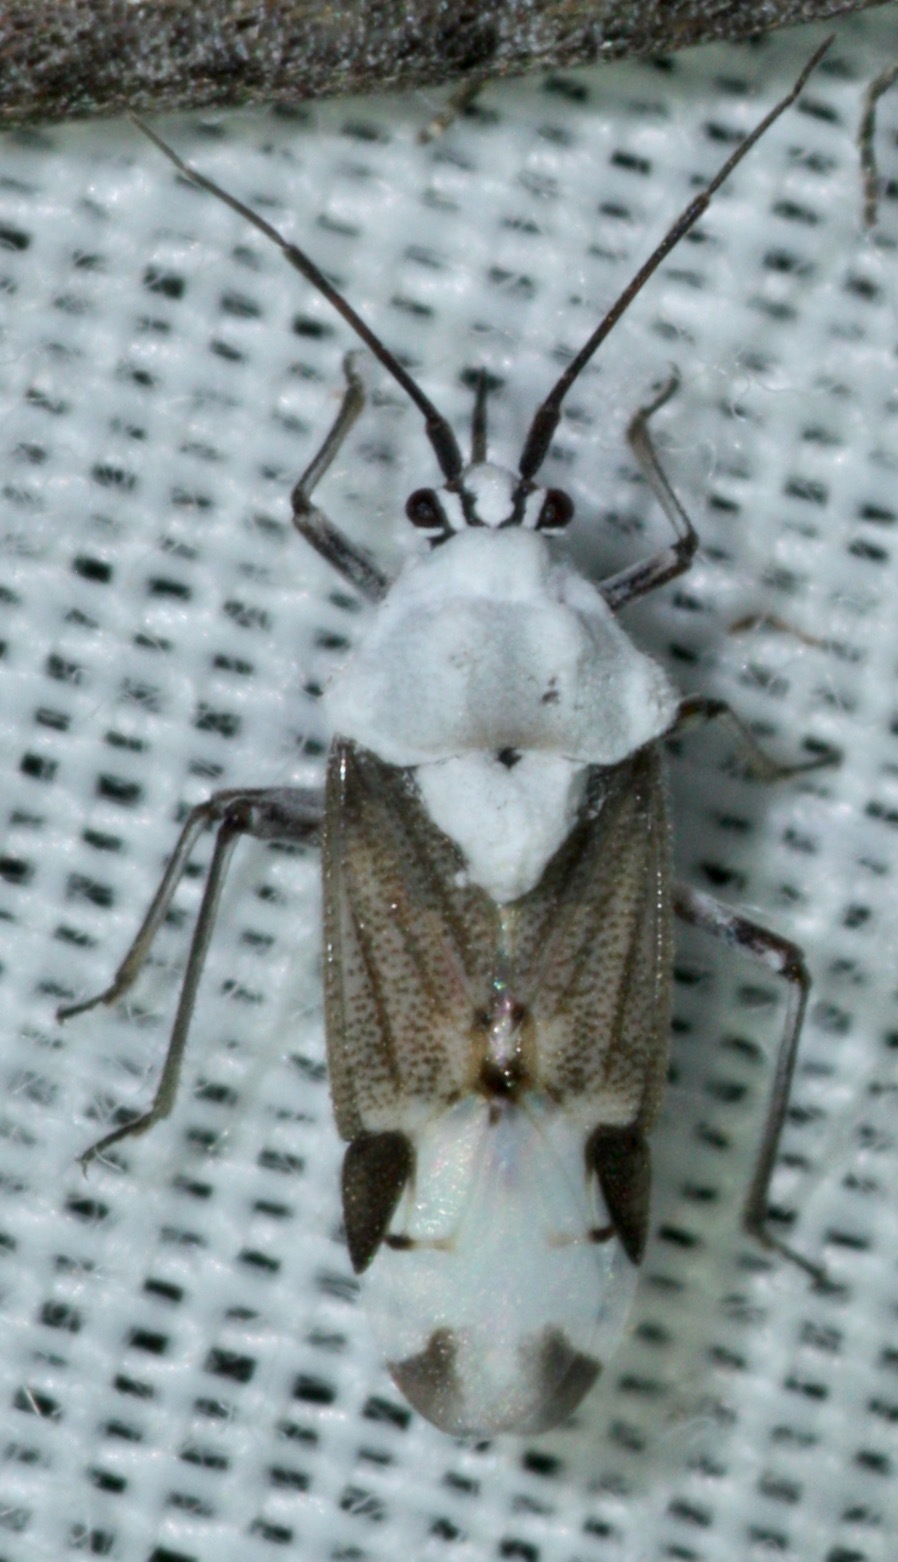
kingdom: Animalia
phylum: Arthropoda
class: Insecta
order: Hemiptera
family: Miridae
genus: Clivinema
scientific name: Clivinema villosa
